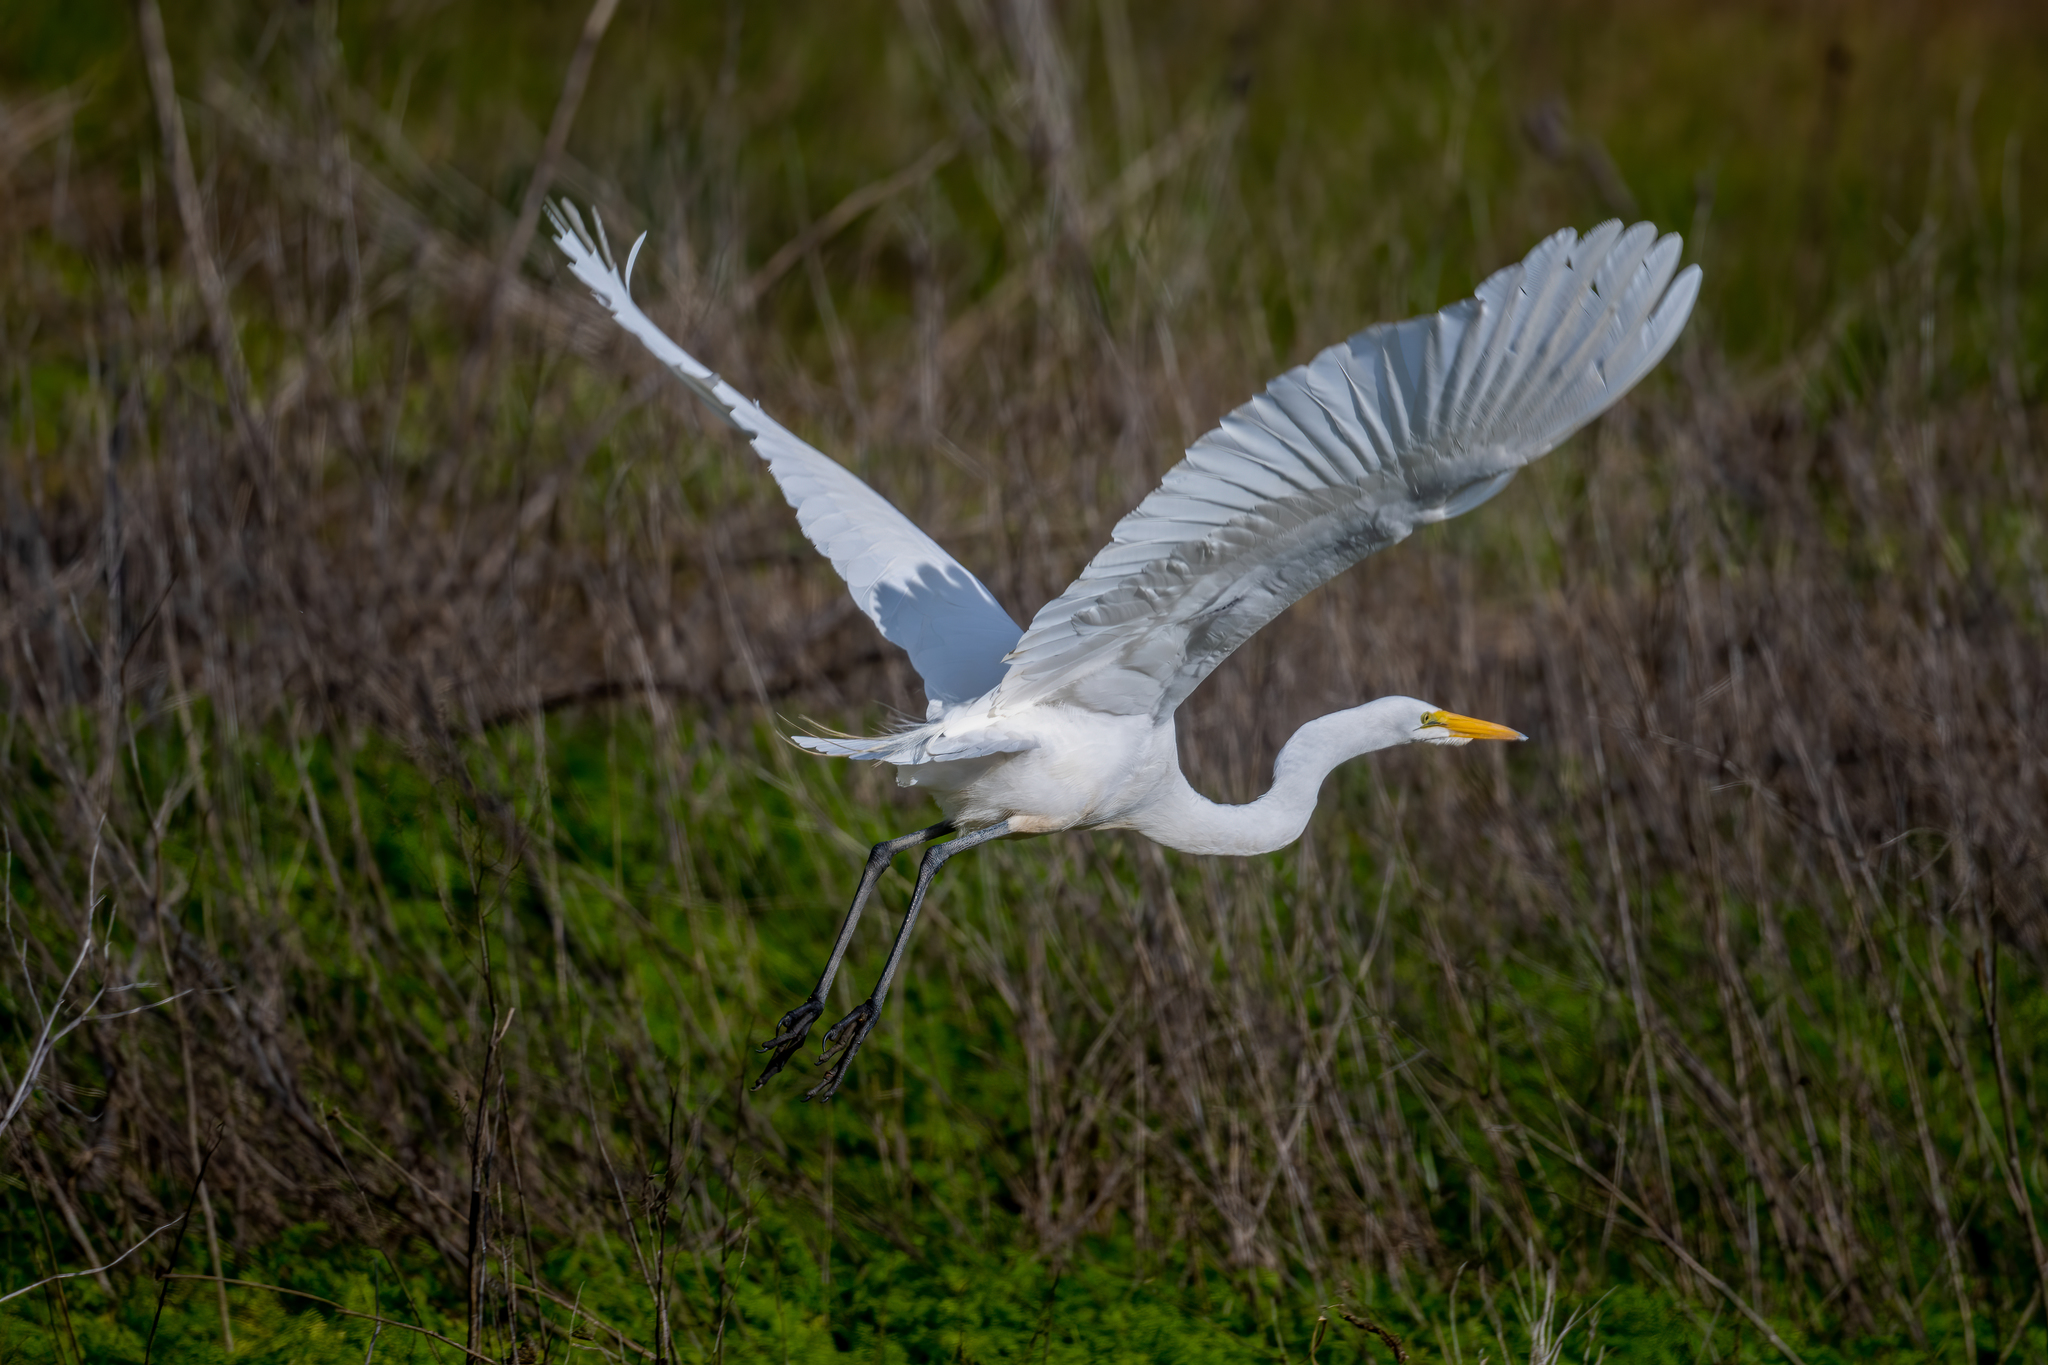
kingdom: Animalia
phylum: Chordata
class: Aves
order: Pelecaniformes
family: Ardeidae
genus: Ardea
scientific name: Ardea alba
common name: Great egret
